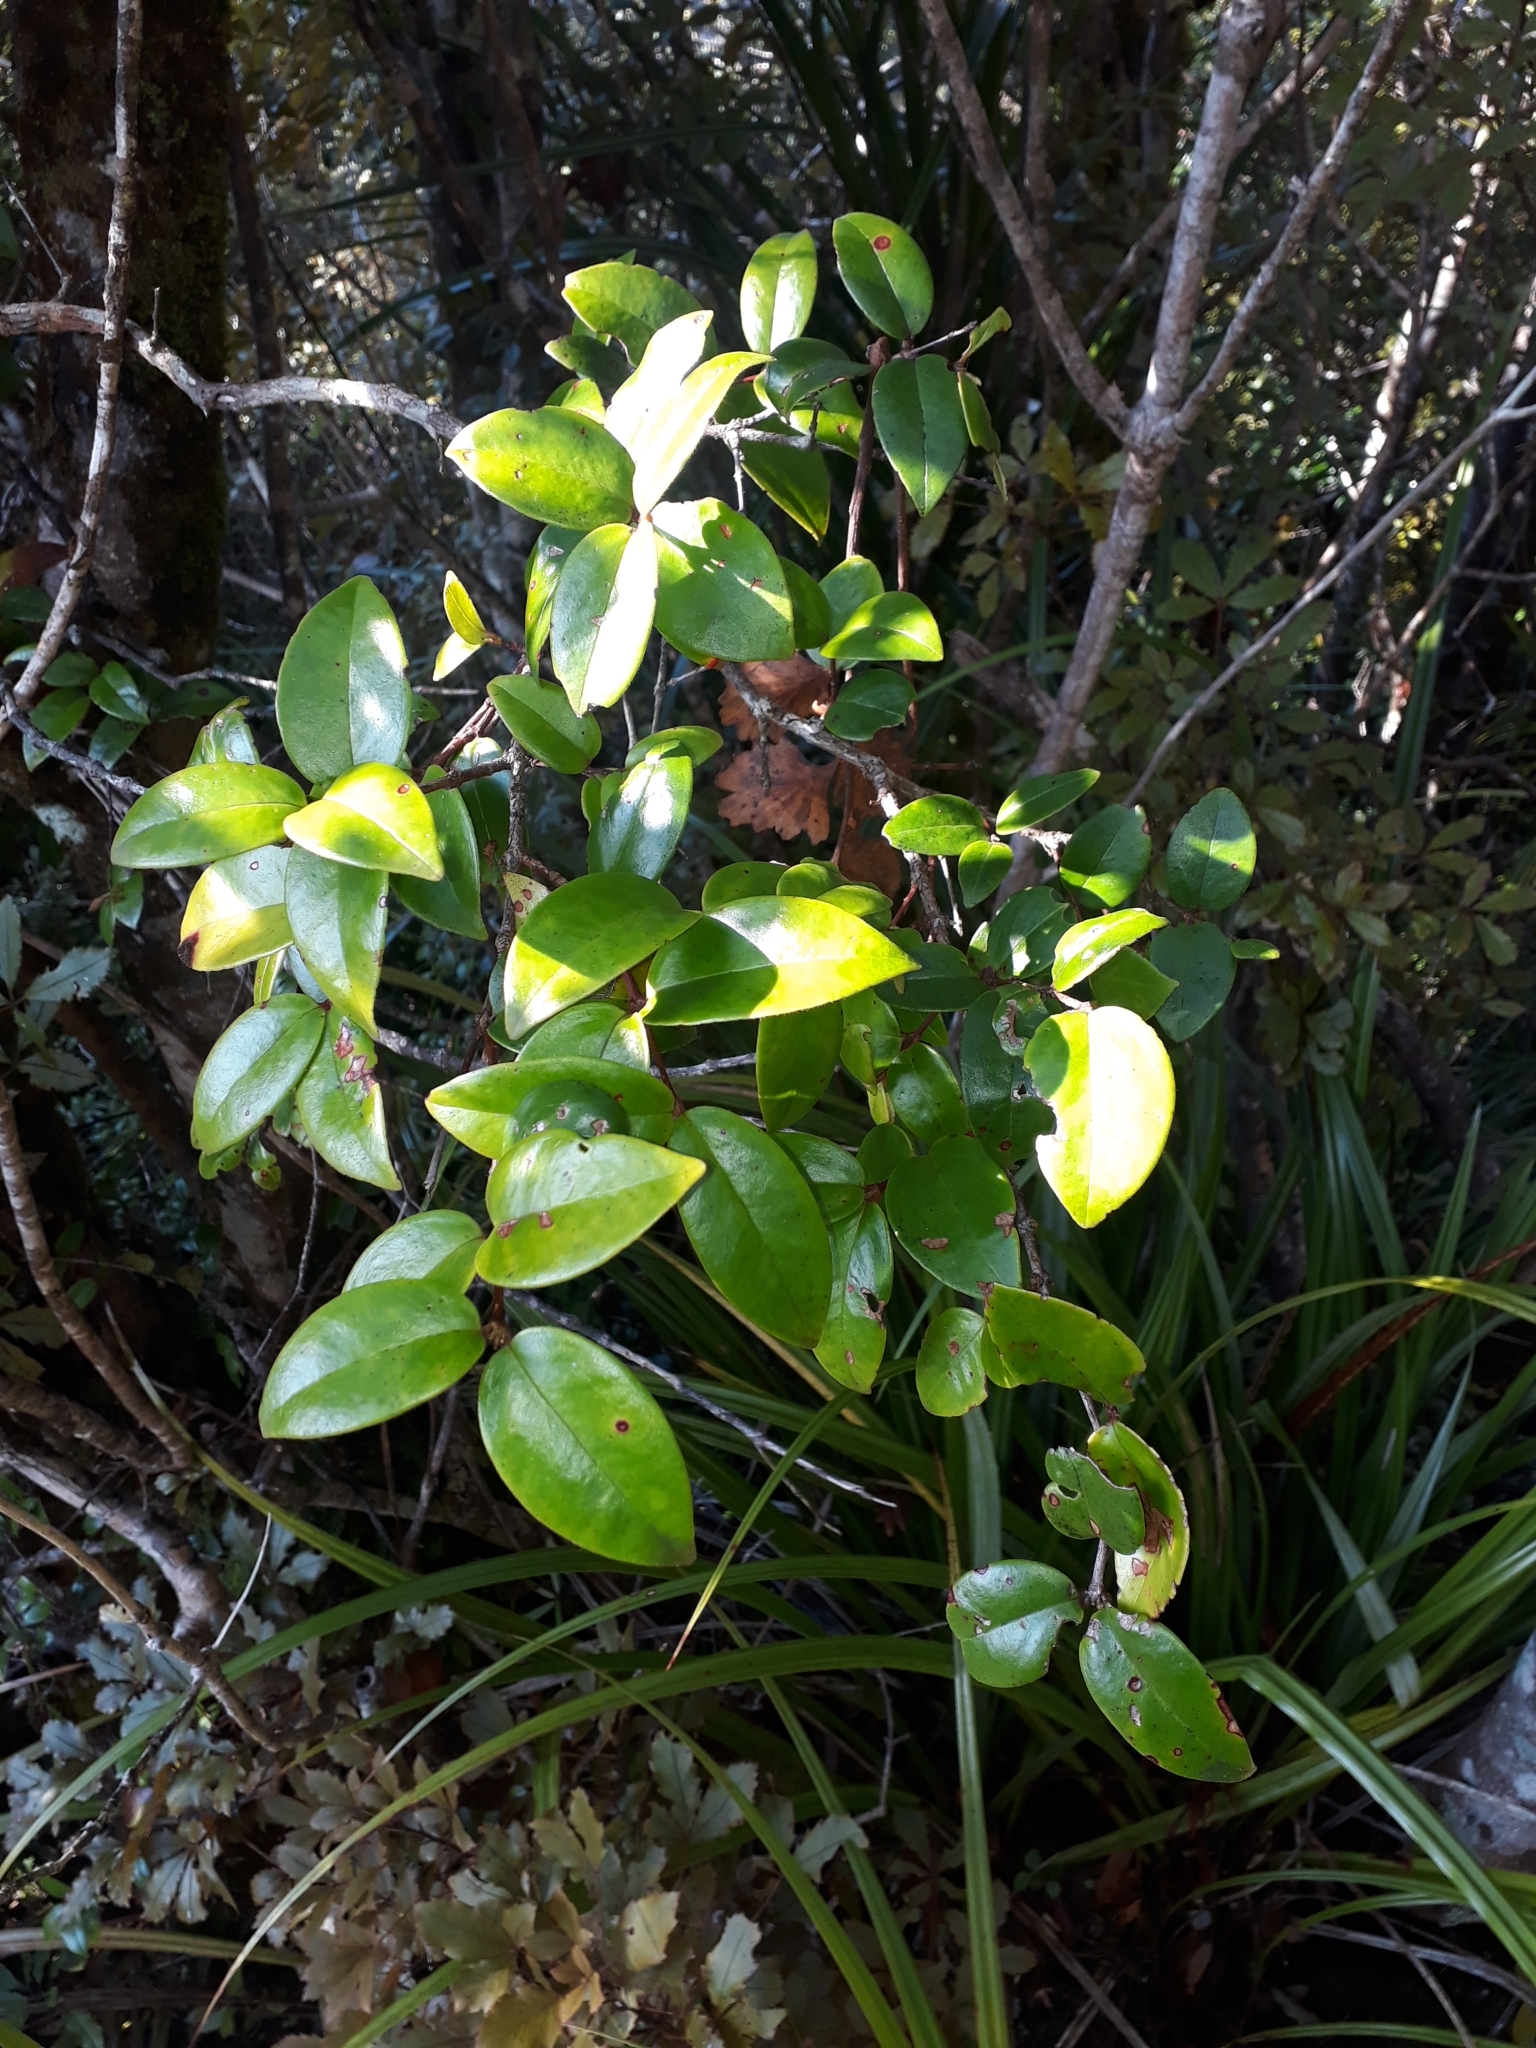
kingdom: Plantae
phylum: Tracheophyta
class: Magnoliopsida
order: Myrtales
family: Myrtaceae
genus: Metrosideros
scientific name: Metrosideros albiflora
